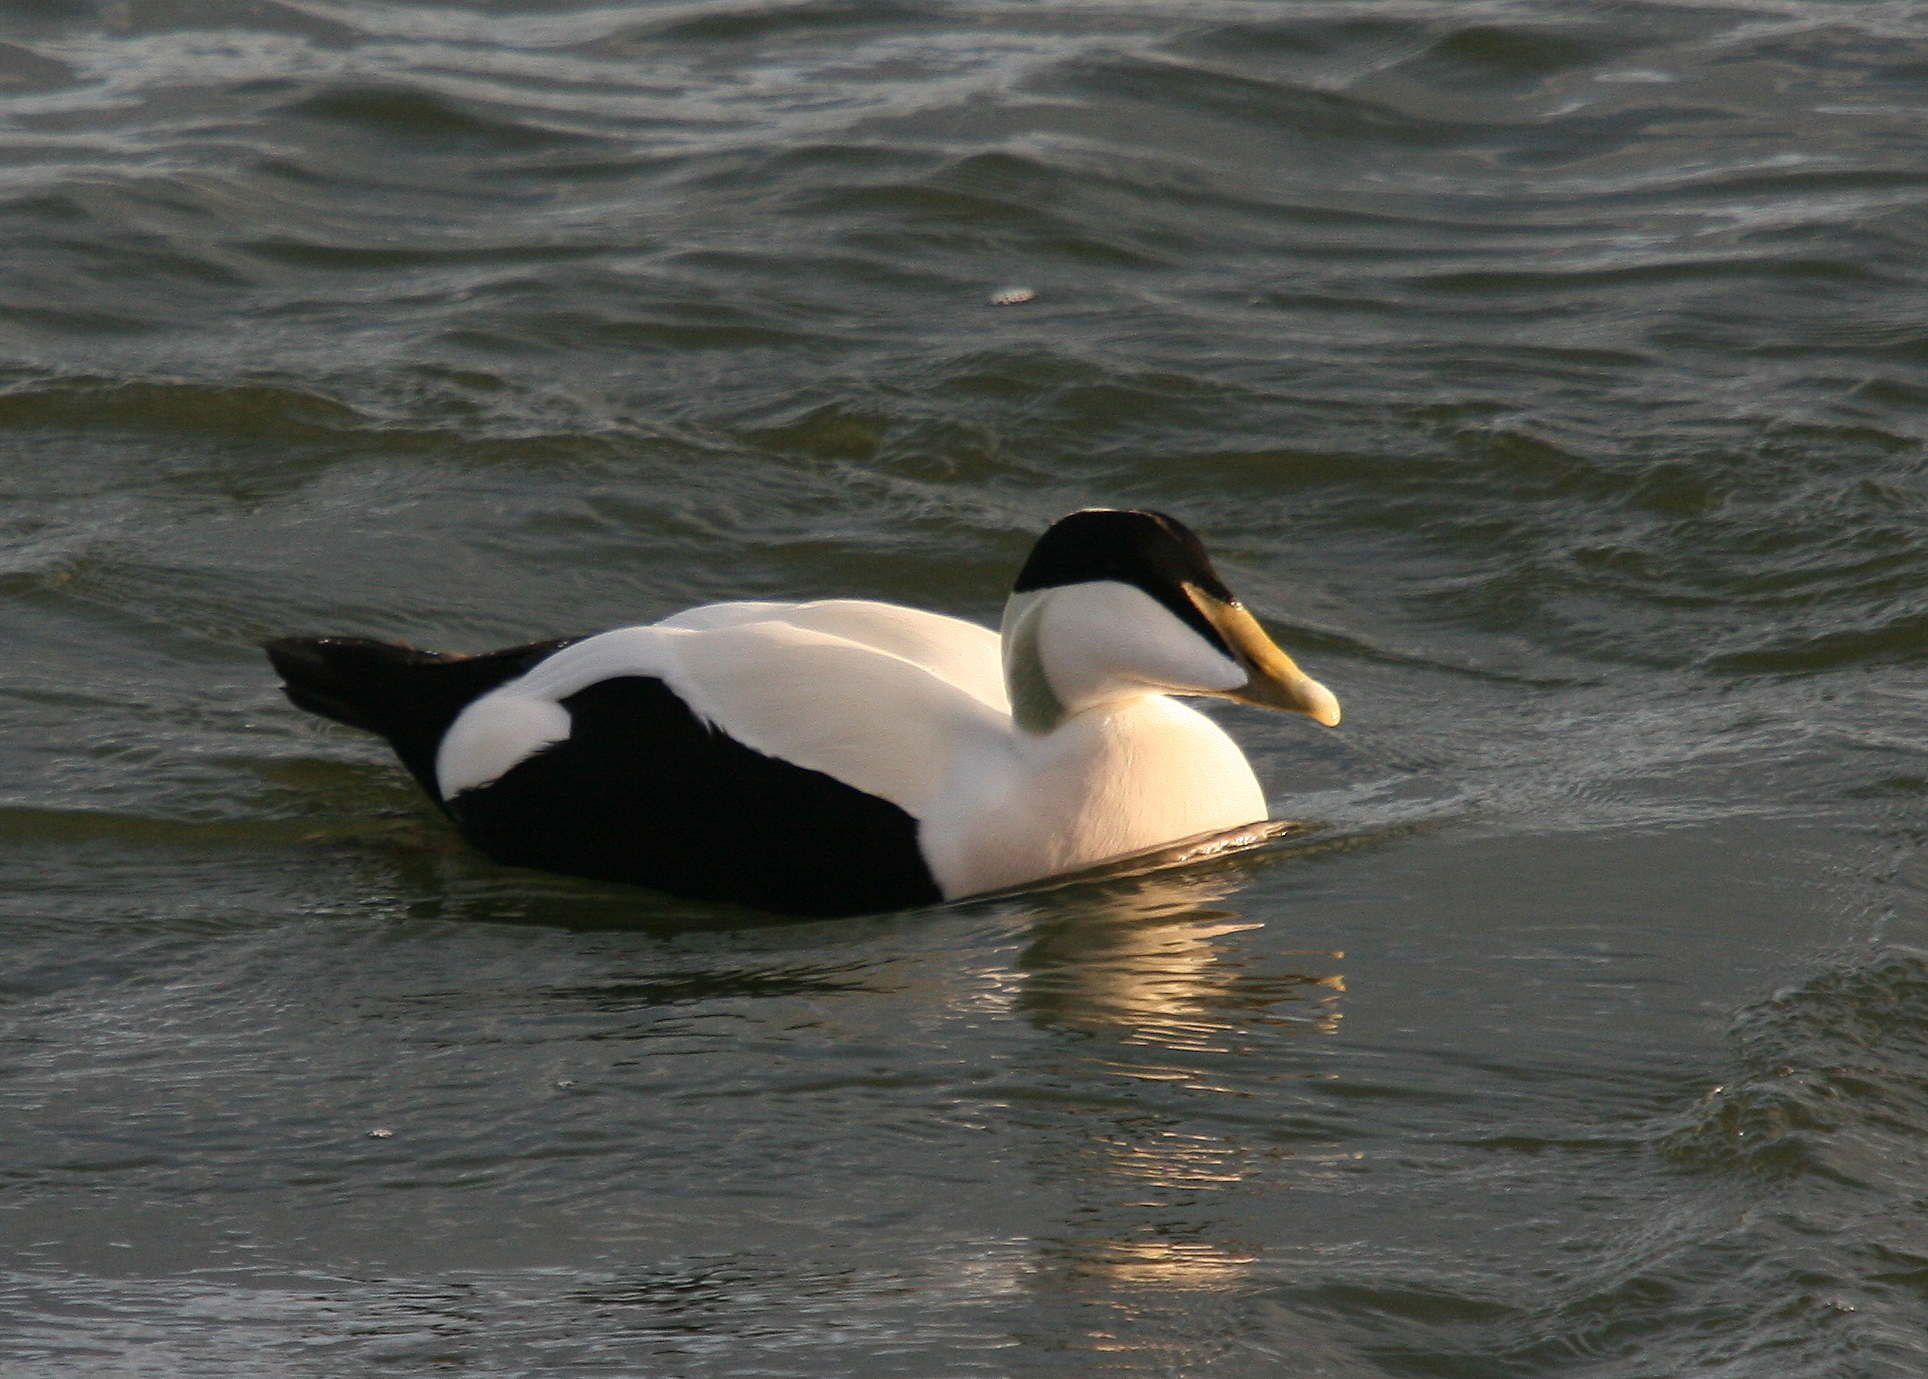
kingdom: Animalia
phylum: Chordata
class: Aves
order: Anseriformes
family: Anatidae
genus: Somateria
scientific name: Somateria mollissima
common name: Common eider
